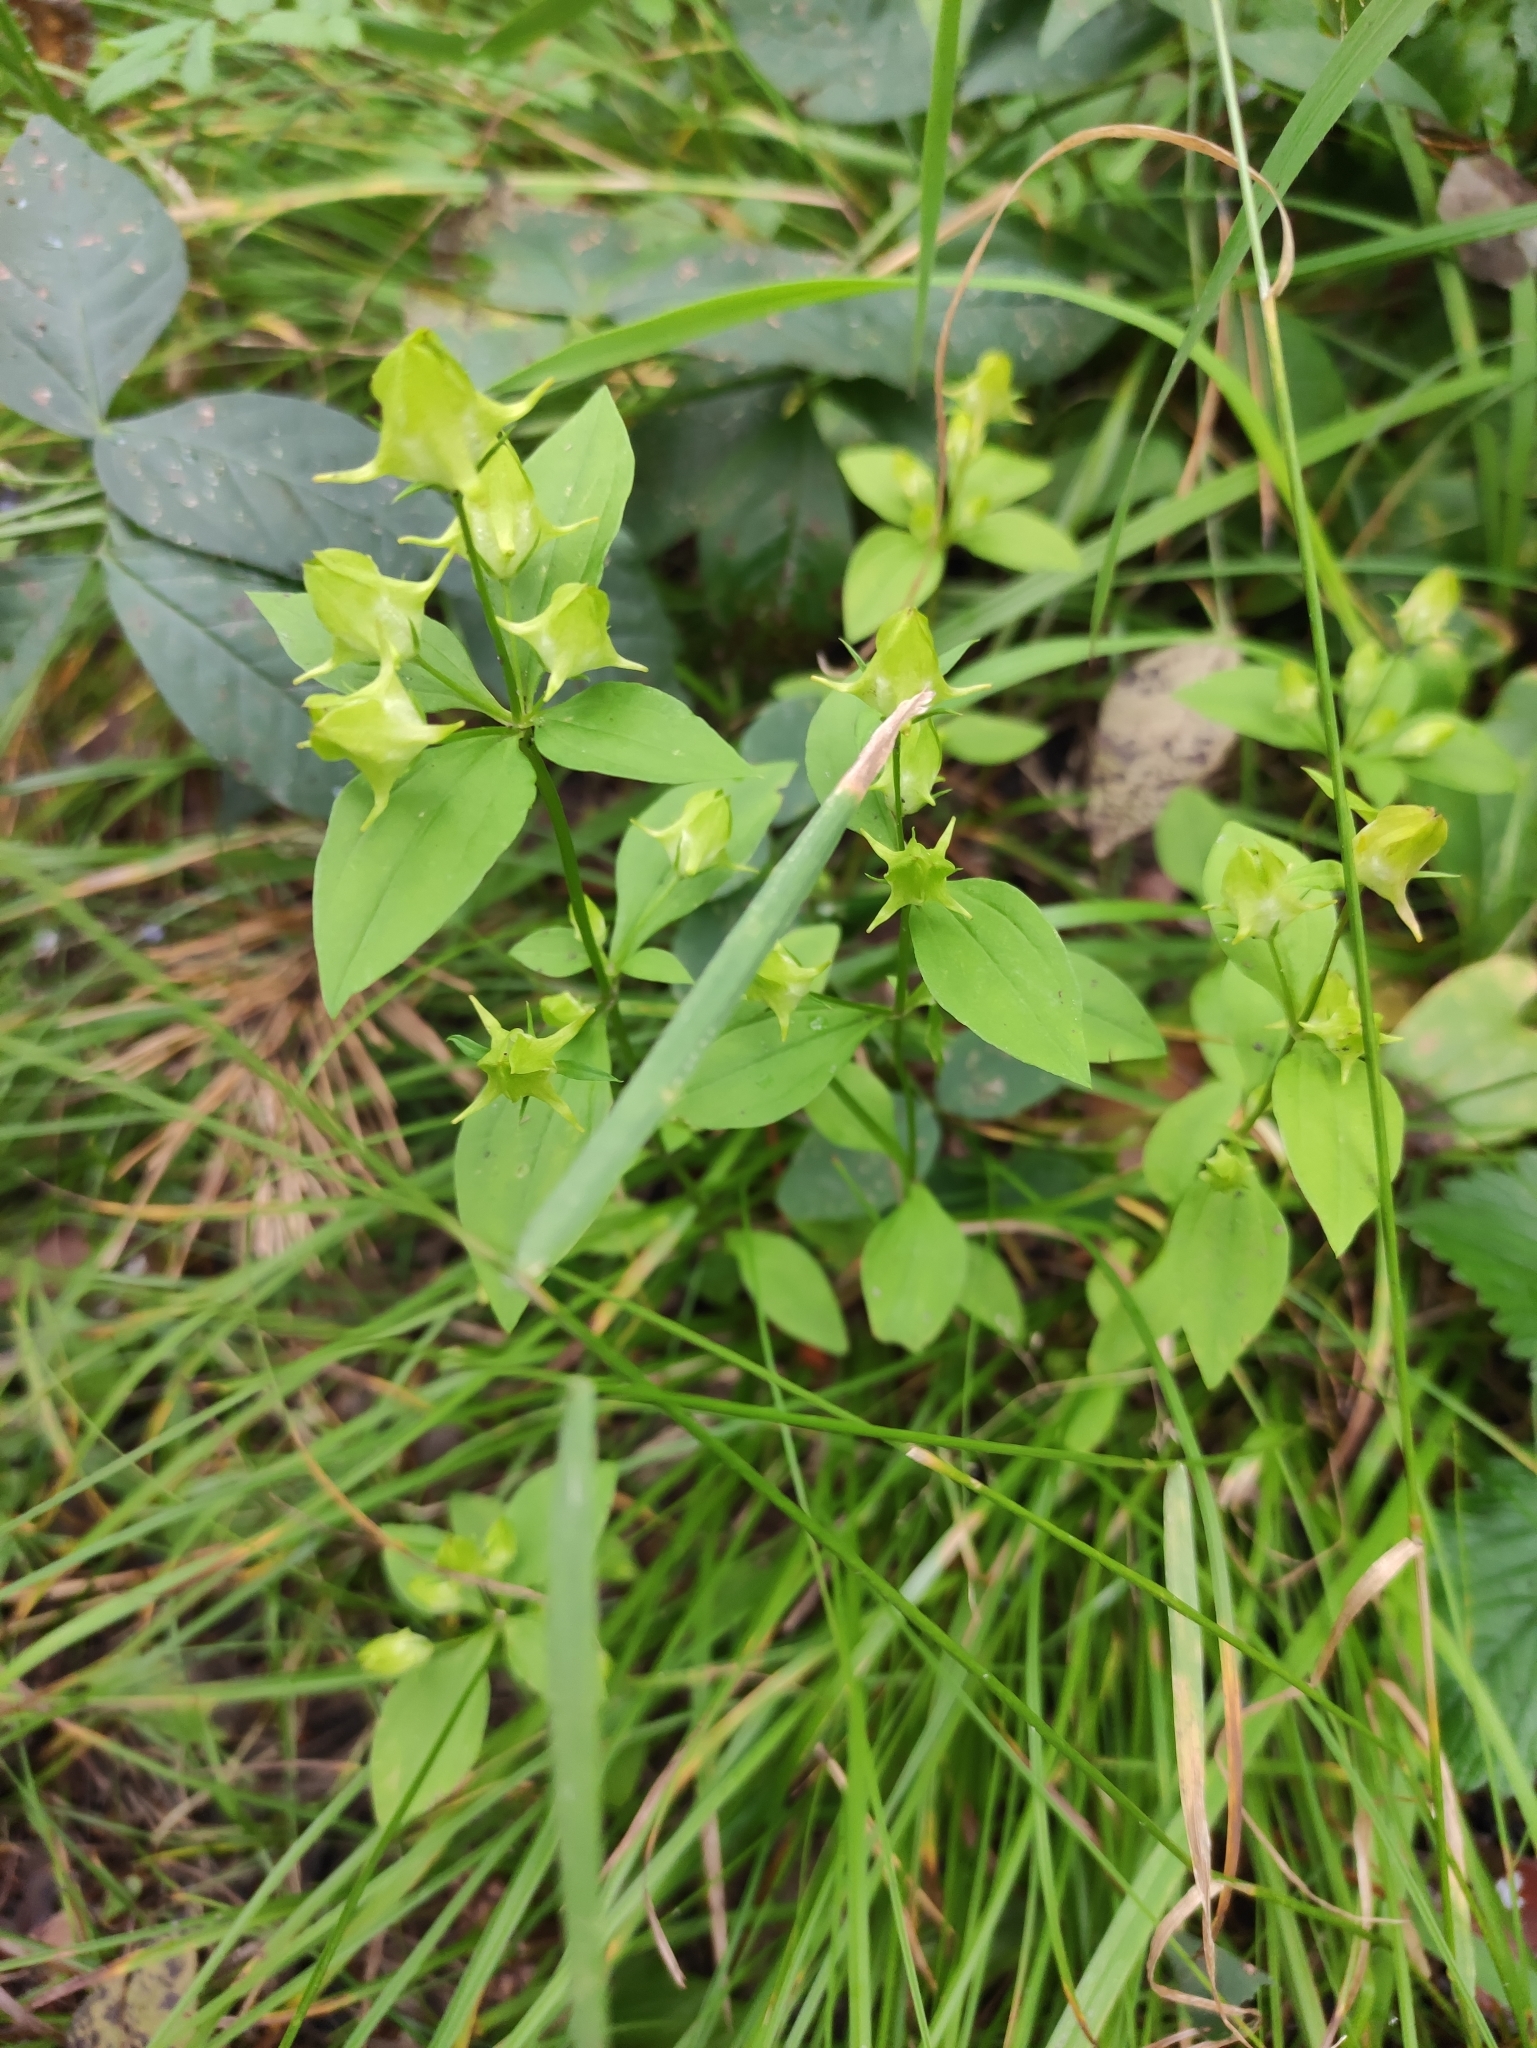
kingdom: Plantae
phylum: Tracheophyta
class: Magnoliopsida
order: Gentianales
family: Gentianaceae
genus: Halenia
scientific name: Halenia corniculata
